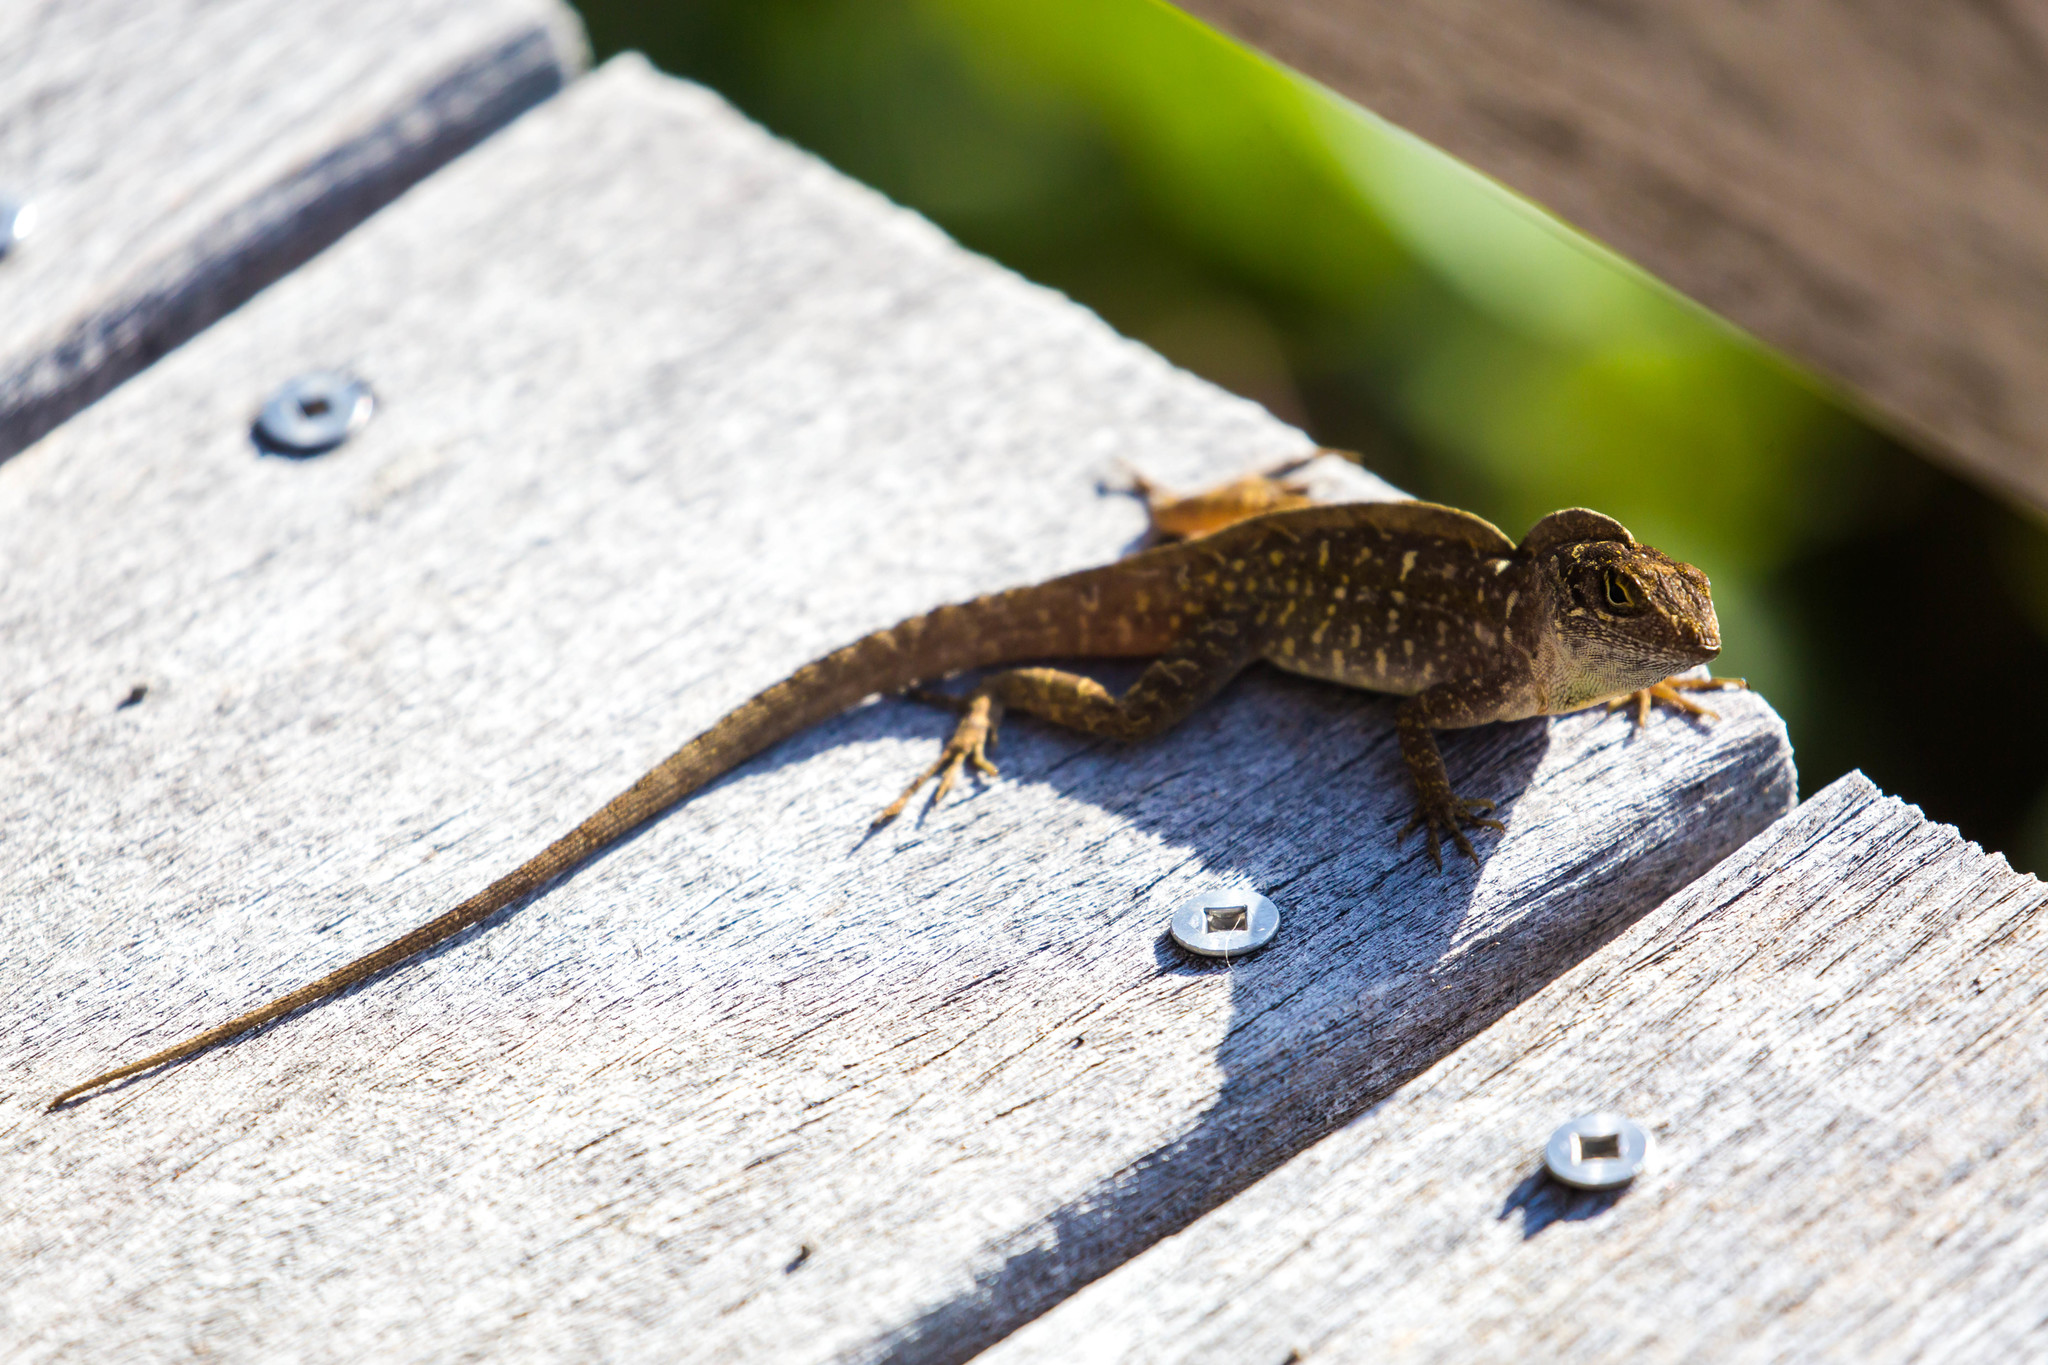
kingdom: Animalia
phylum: Chordata
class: Squamata
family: Dactyloidae
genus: Anolis
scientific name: Anolis sagrei
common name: Brown anole
